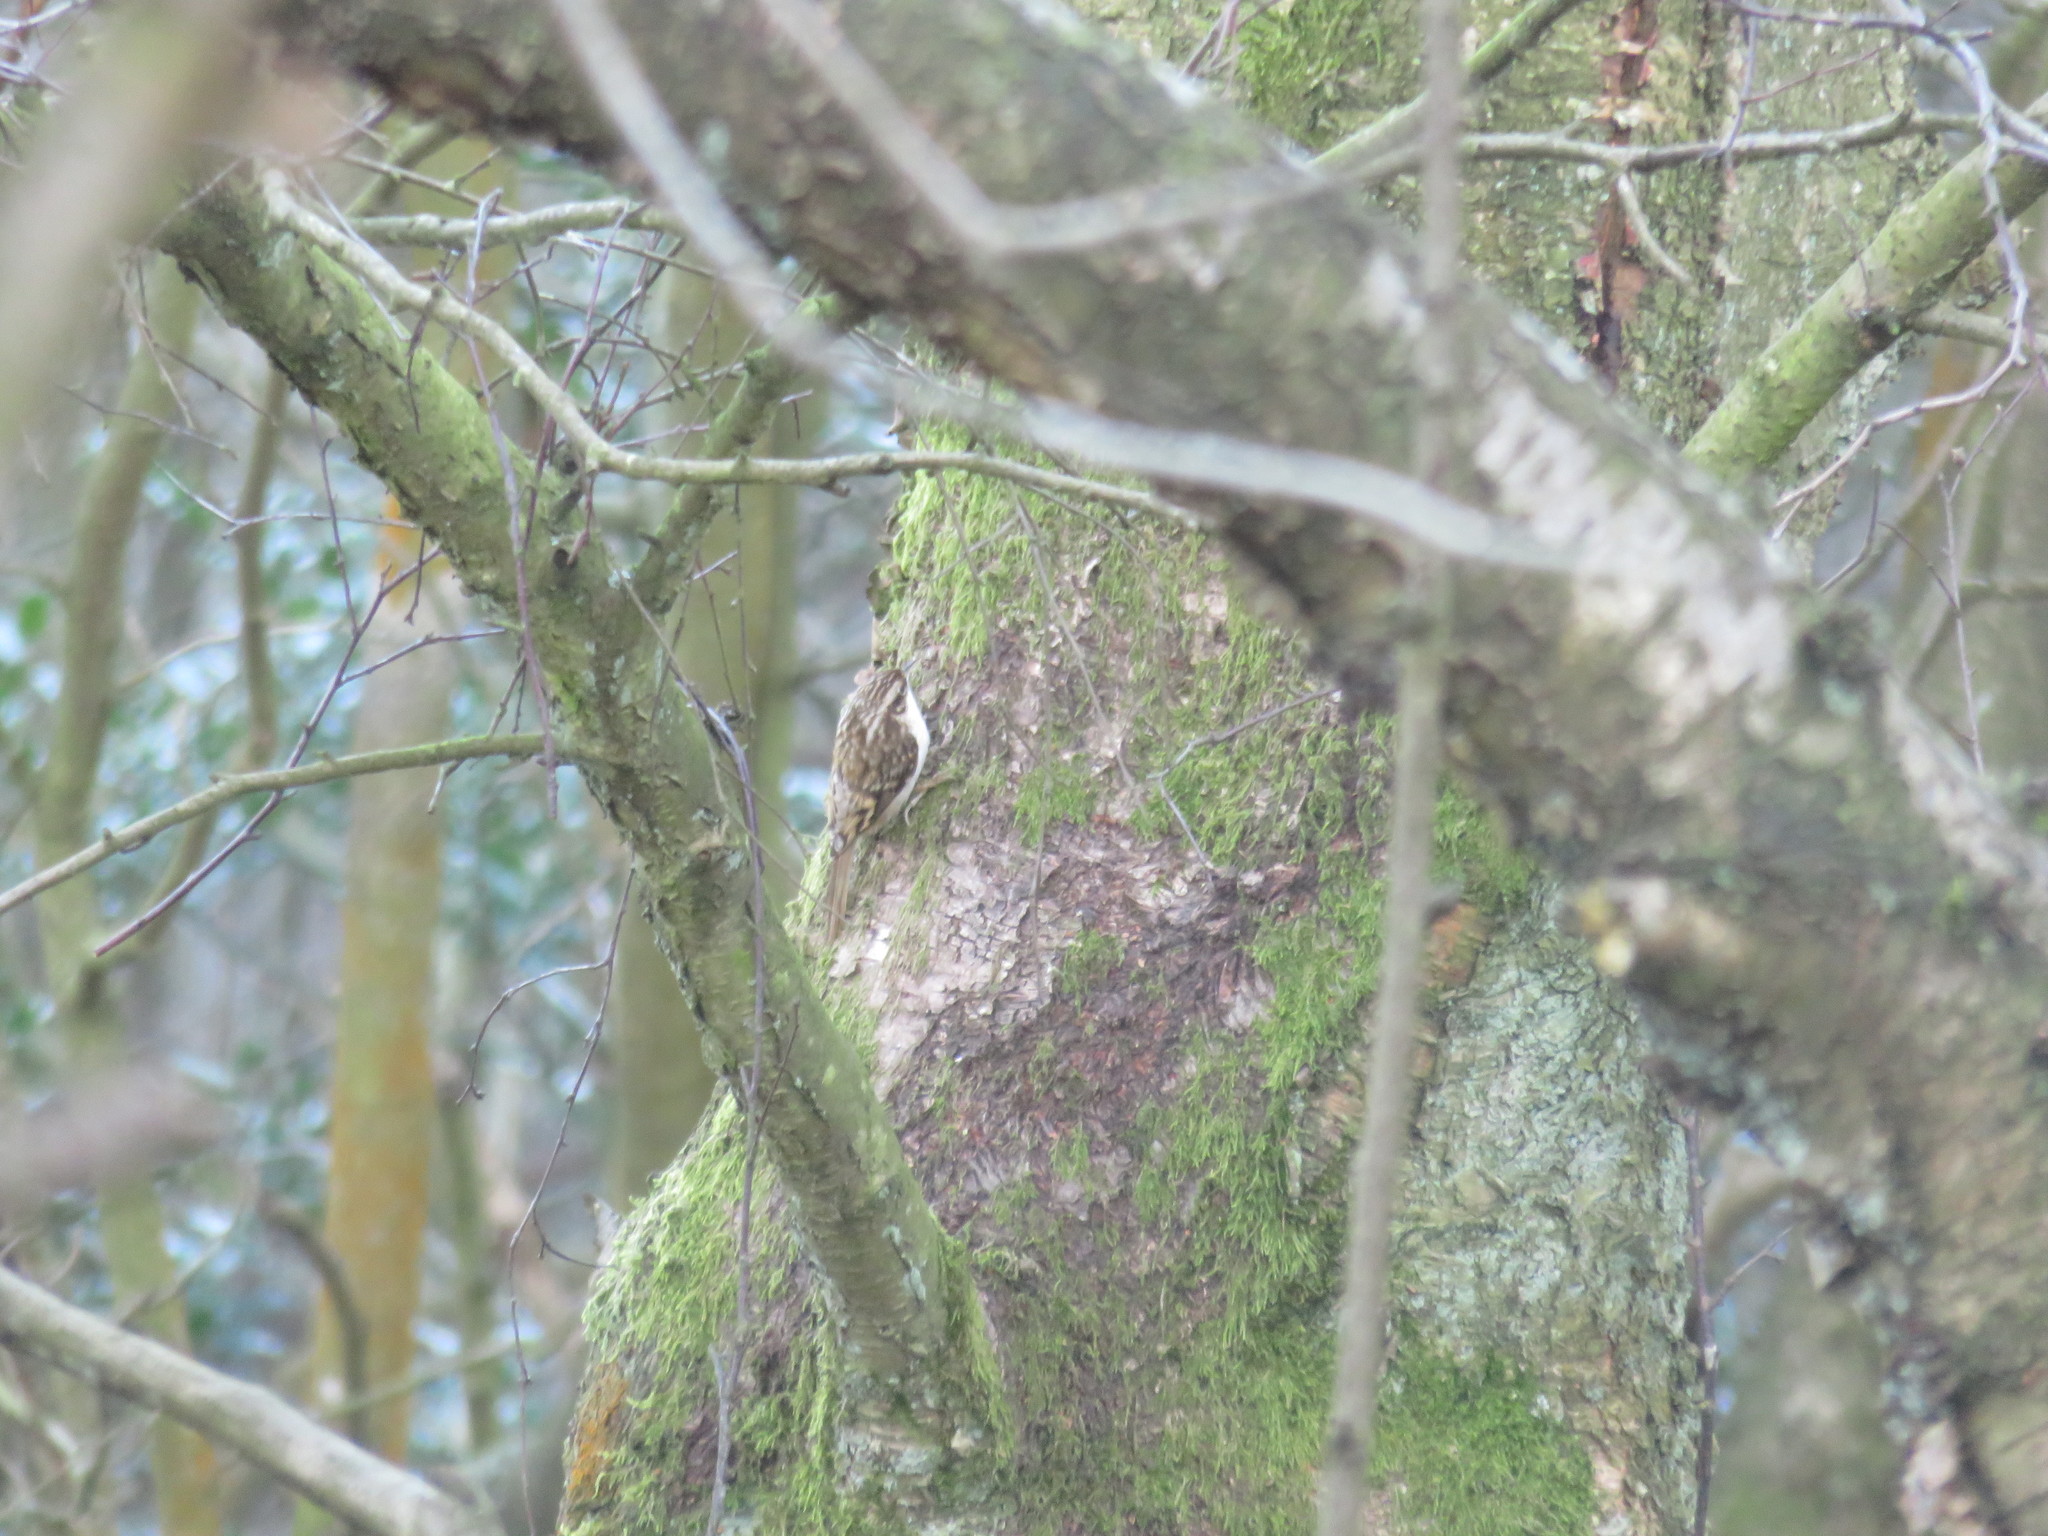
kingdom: Animalia
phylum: Chordata
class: Aves
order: Passeriformes
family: Certhiidae
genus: Certhia
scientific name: Certhia familiaris
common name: Eurasian treecreeper
